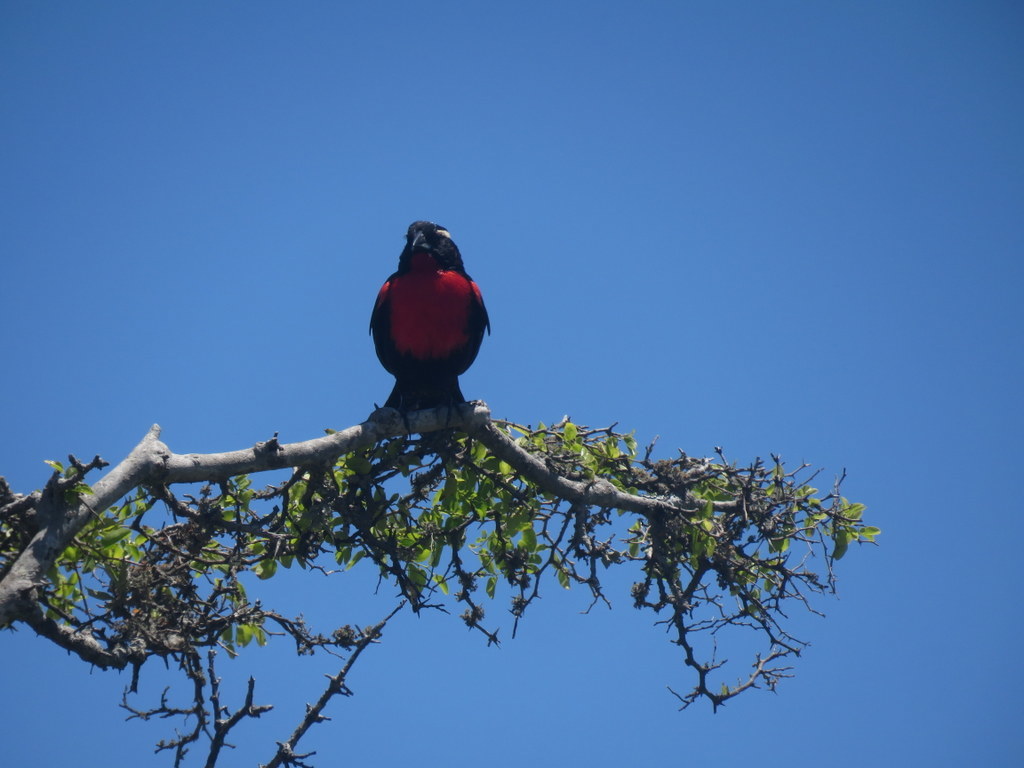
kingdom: Animalia
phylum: Chordata
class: Aves
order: Passeriformes
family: Icteridae
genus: Sturnella
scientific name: Sturnella superciliaris
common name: White-browed blackbird
